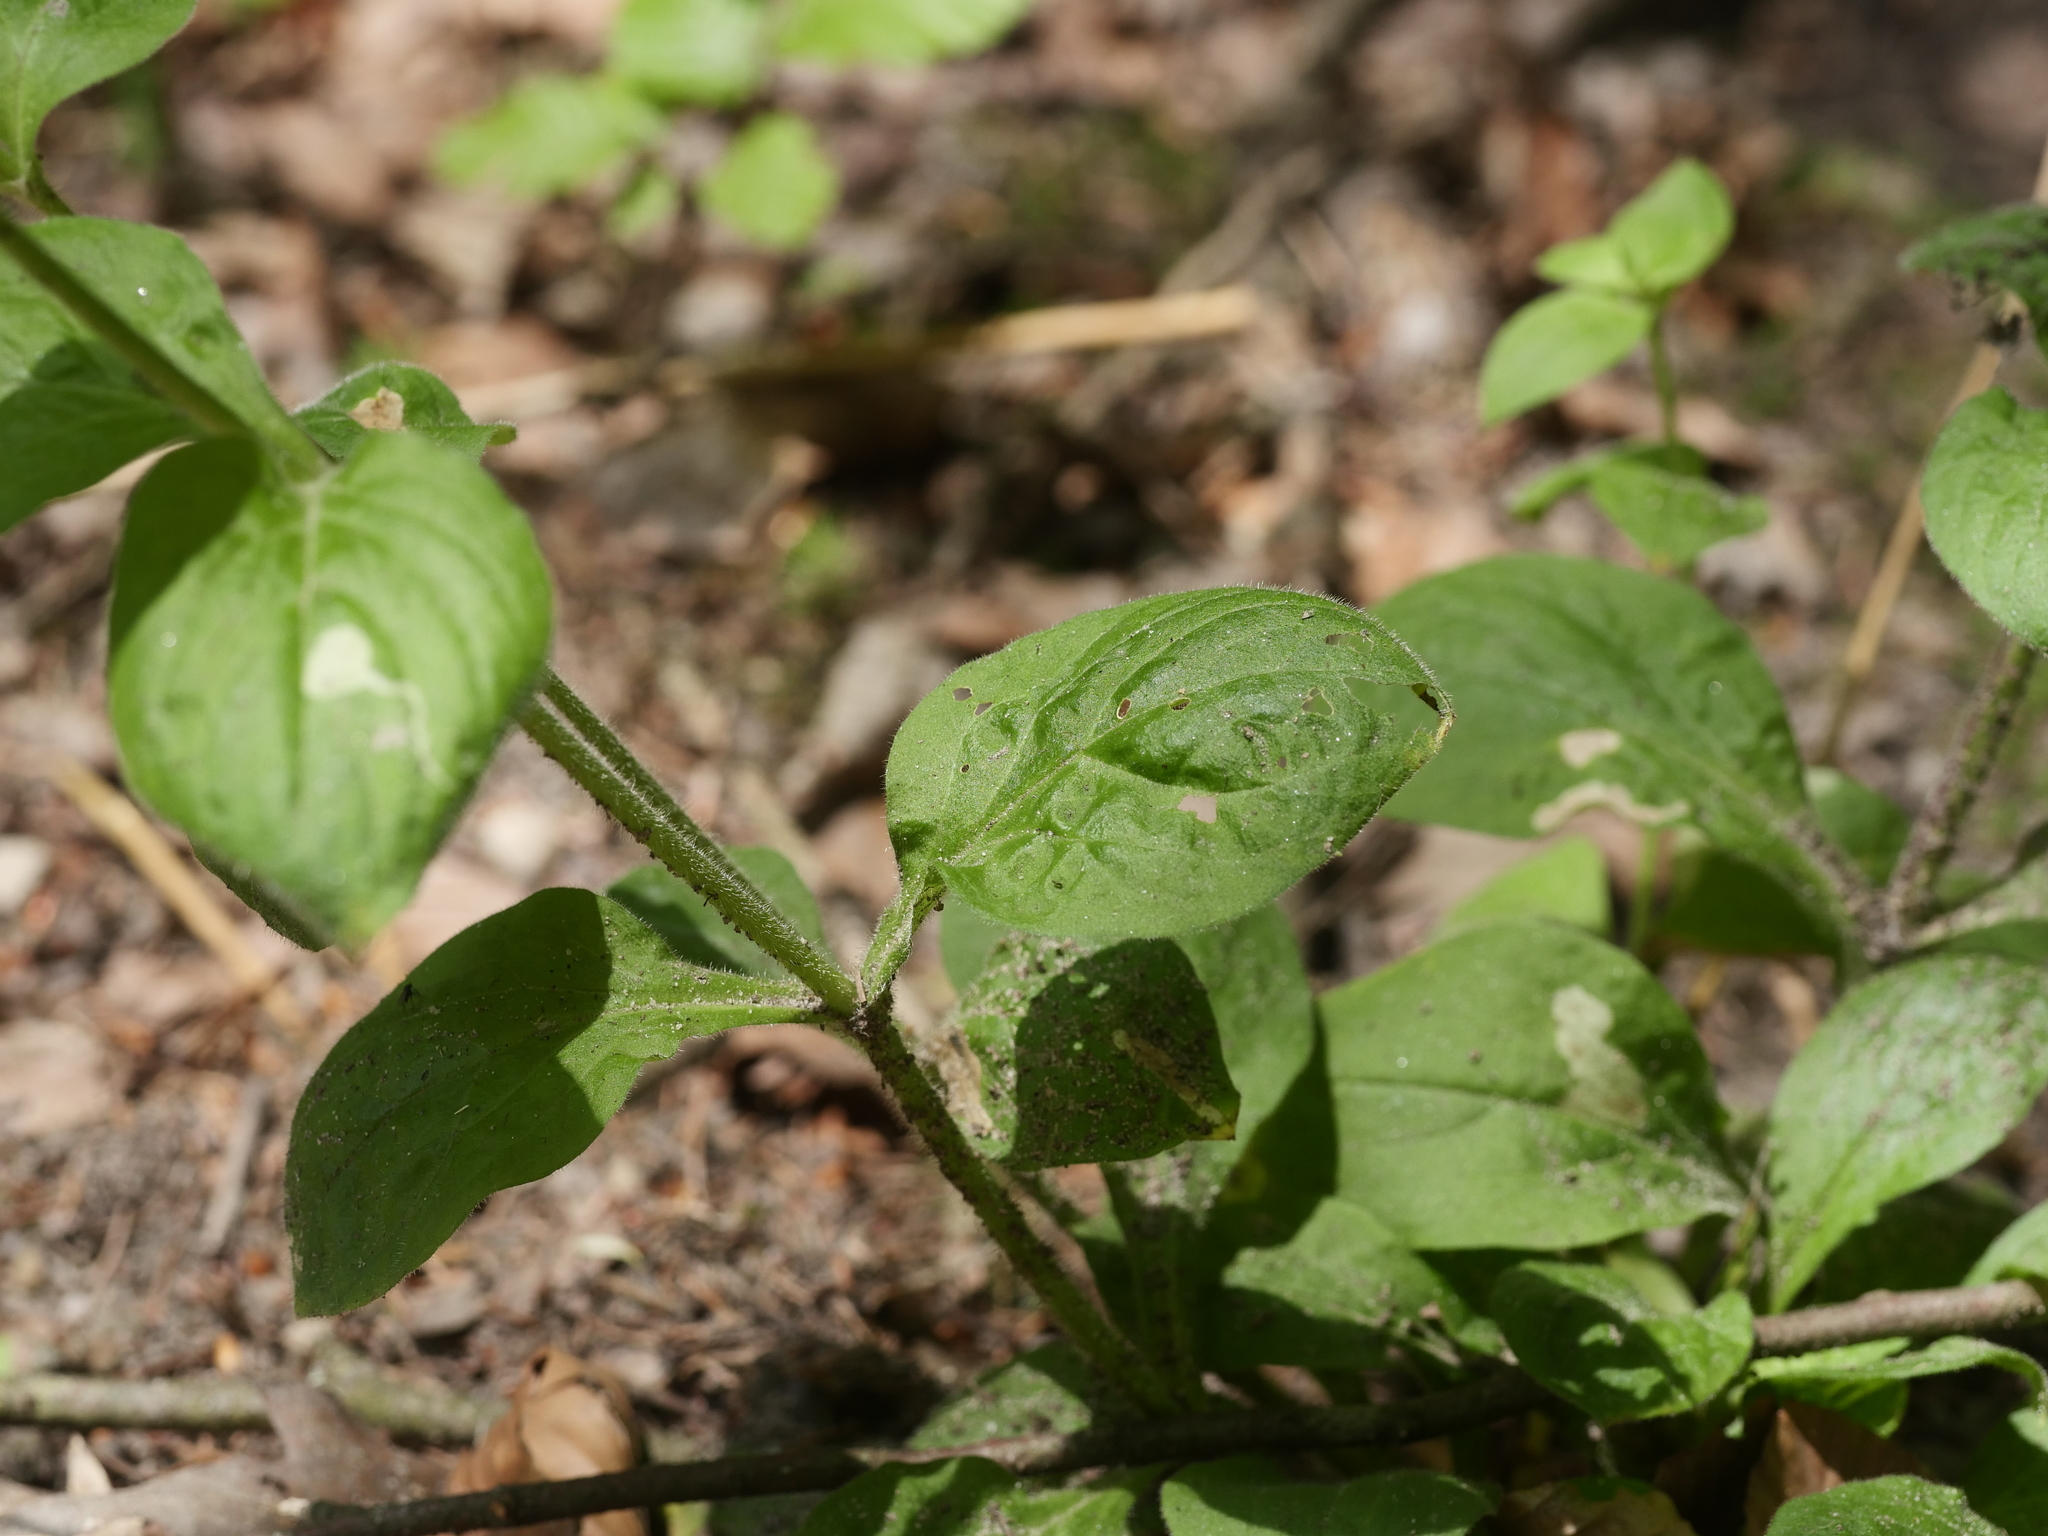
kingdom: Plantae
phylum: Tracheophyta
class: Magnoliopsida
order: Caryophyllales
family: Caryophyllaceae
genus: Silene
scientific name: Silene dioica
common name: Red campion
